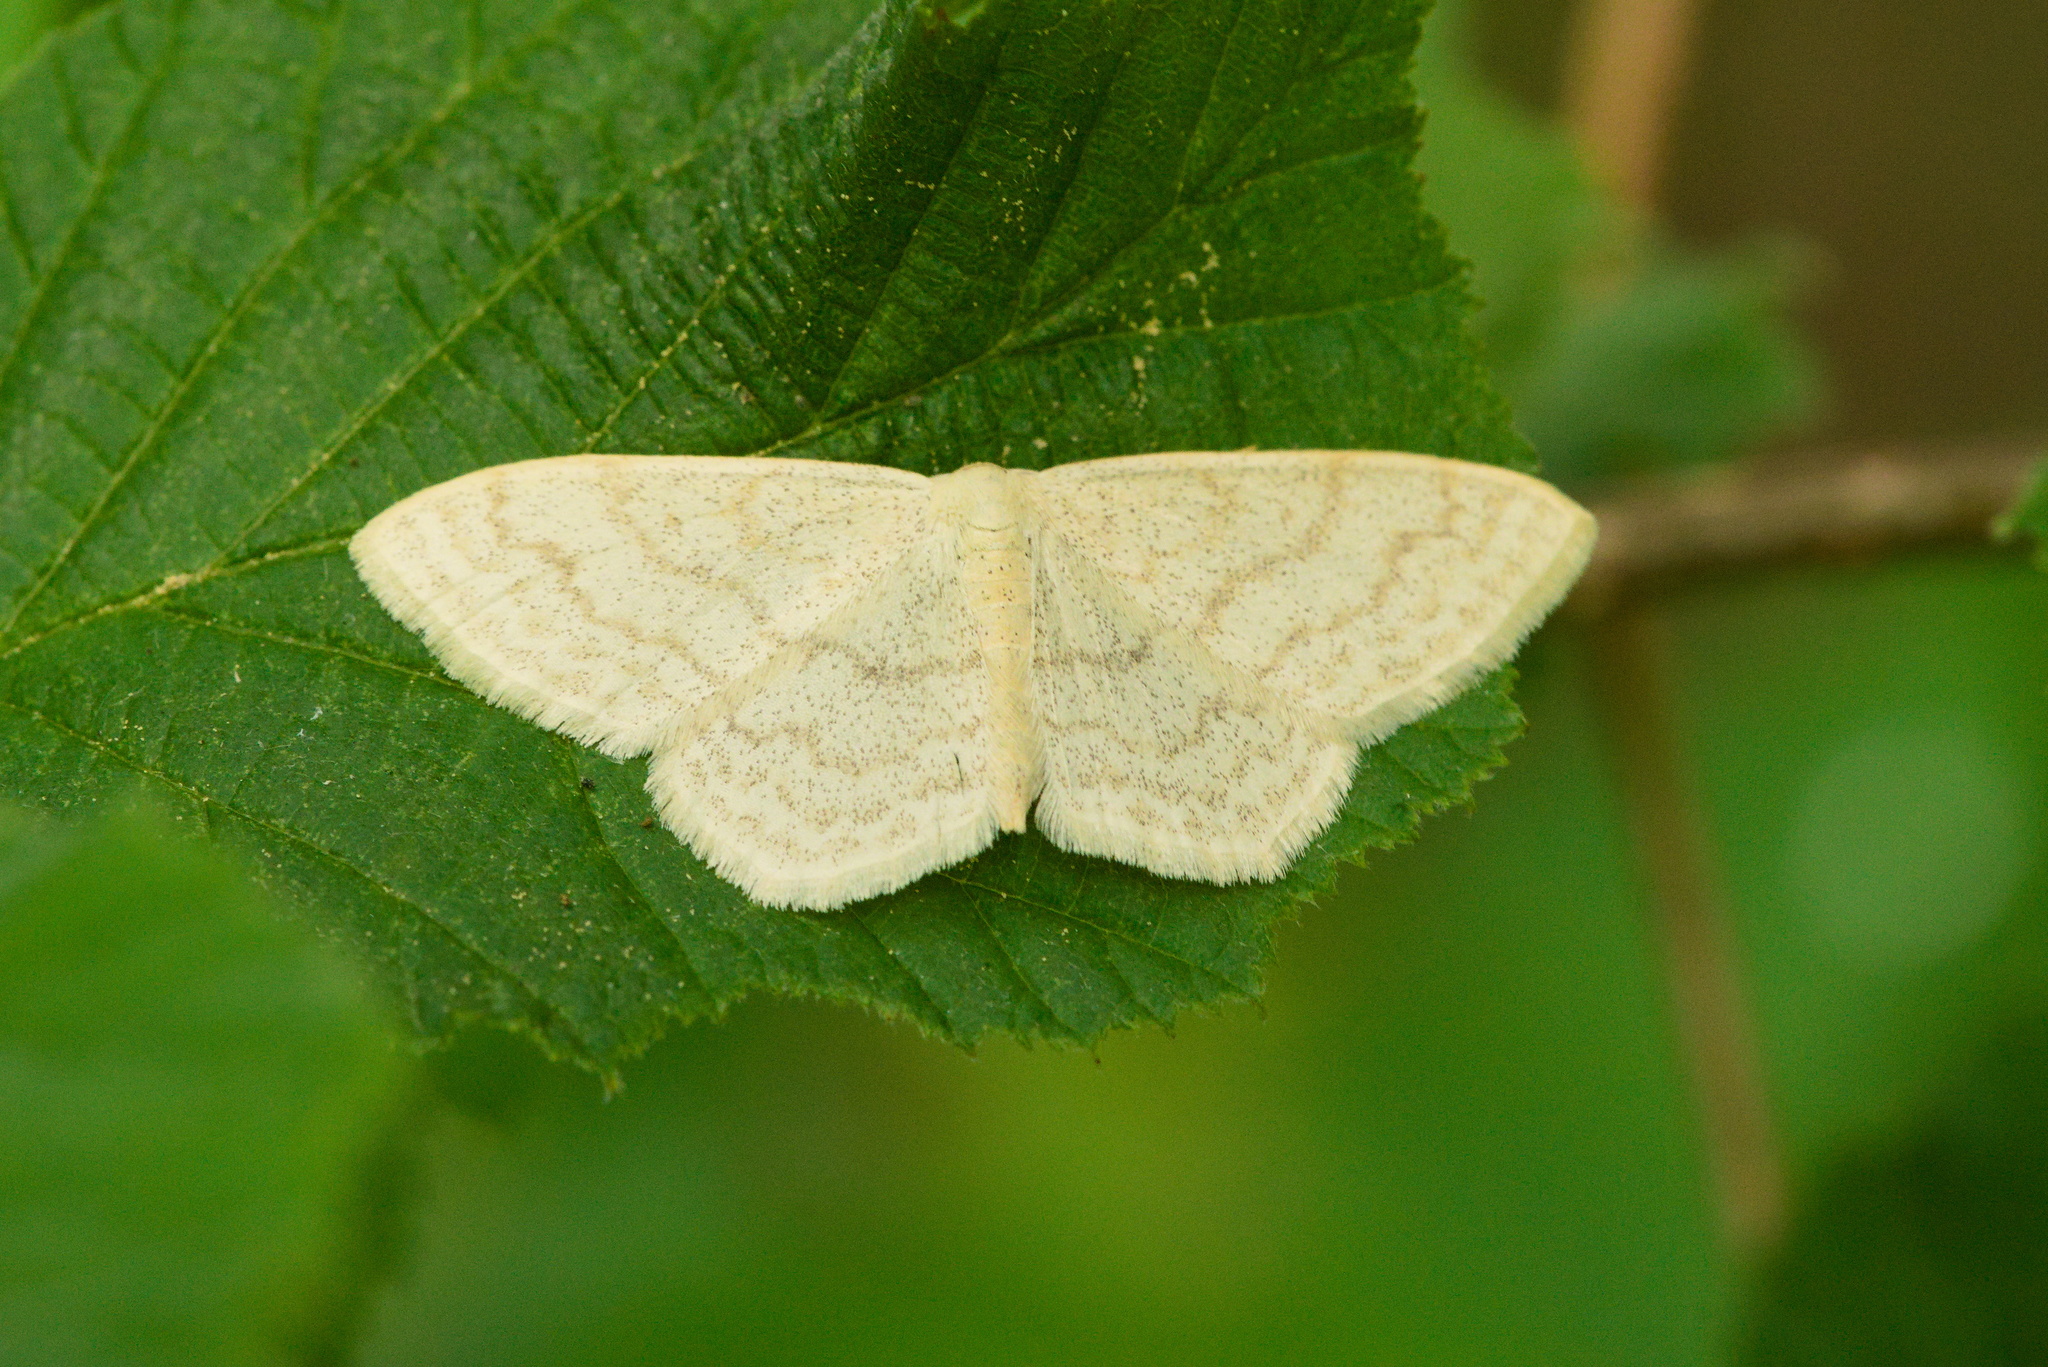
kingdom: Animalia
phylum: Arthropoda
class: Insecta
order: Lepidoptera
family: Geometridae
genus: Scopula
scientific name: Scopula floslactata
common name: Cream wave
